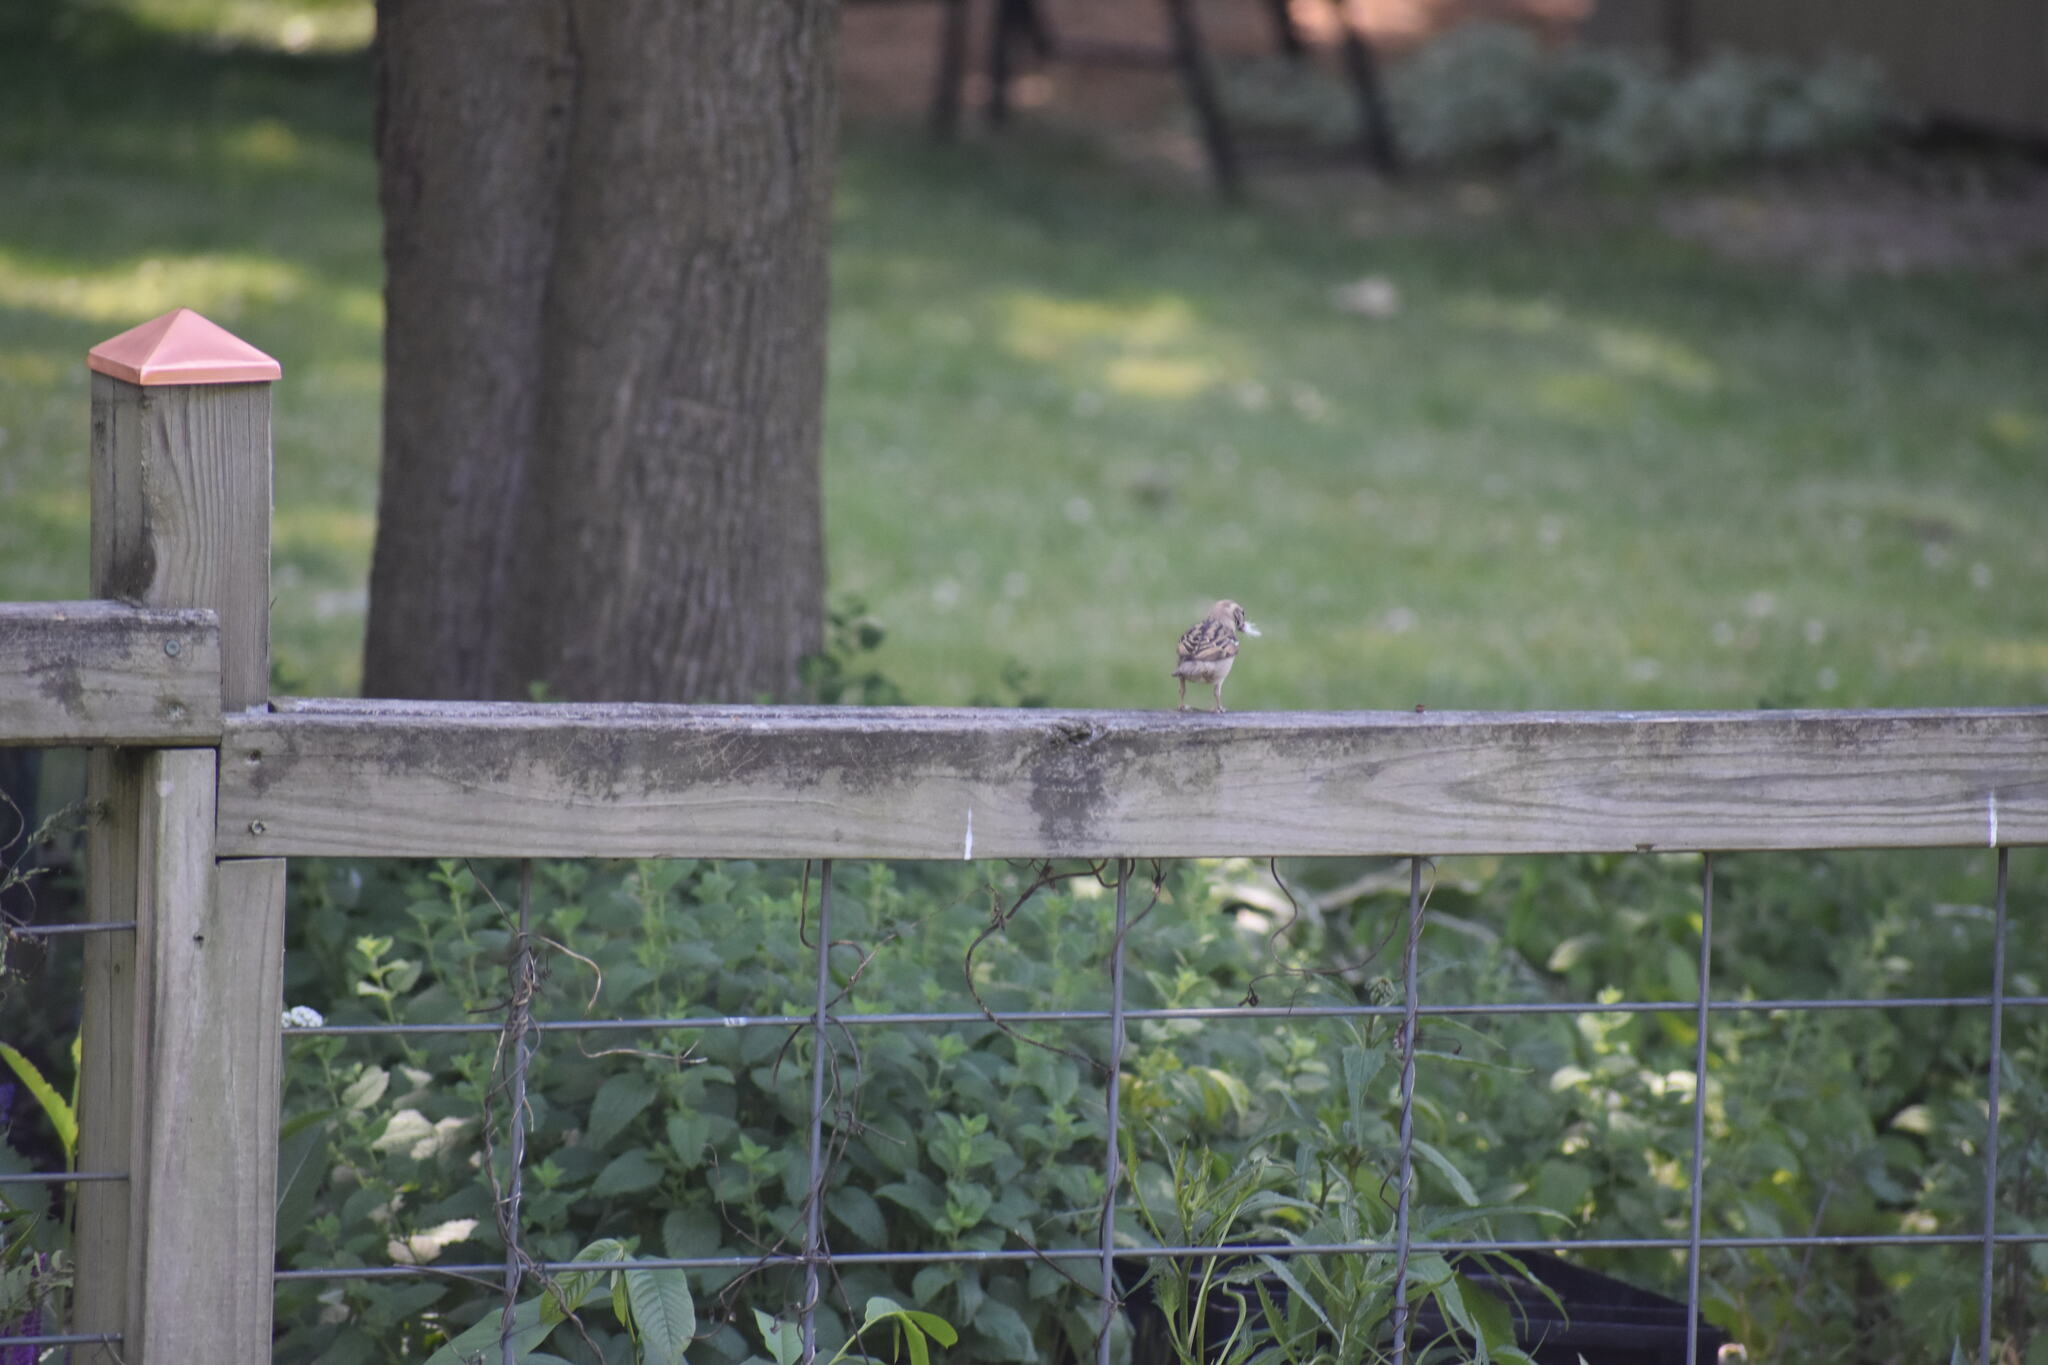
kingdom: Animalia
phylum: Chordata
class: Aves
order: Passeriformes
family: Passerellidae
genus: Spizella
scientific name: Spizella passerina
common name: Chipping sparrow
